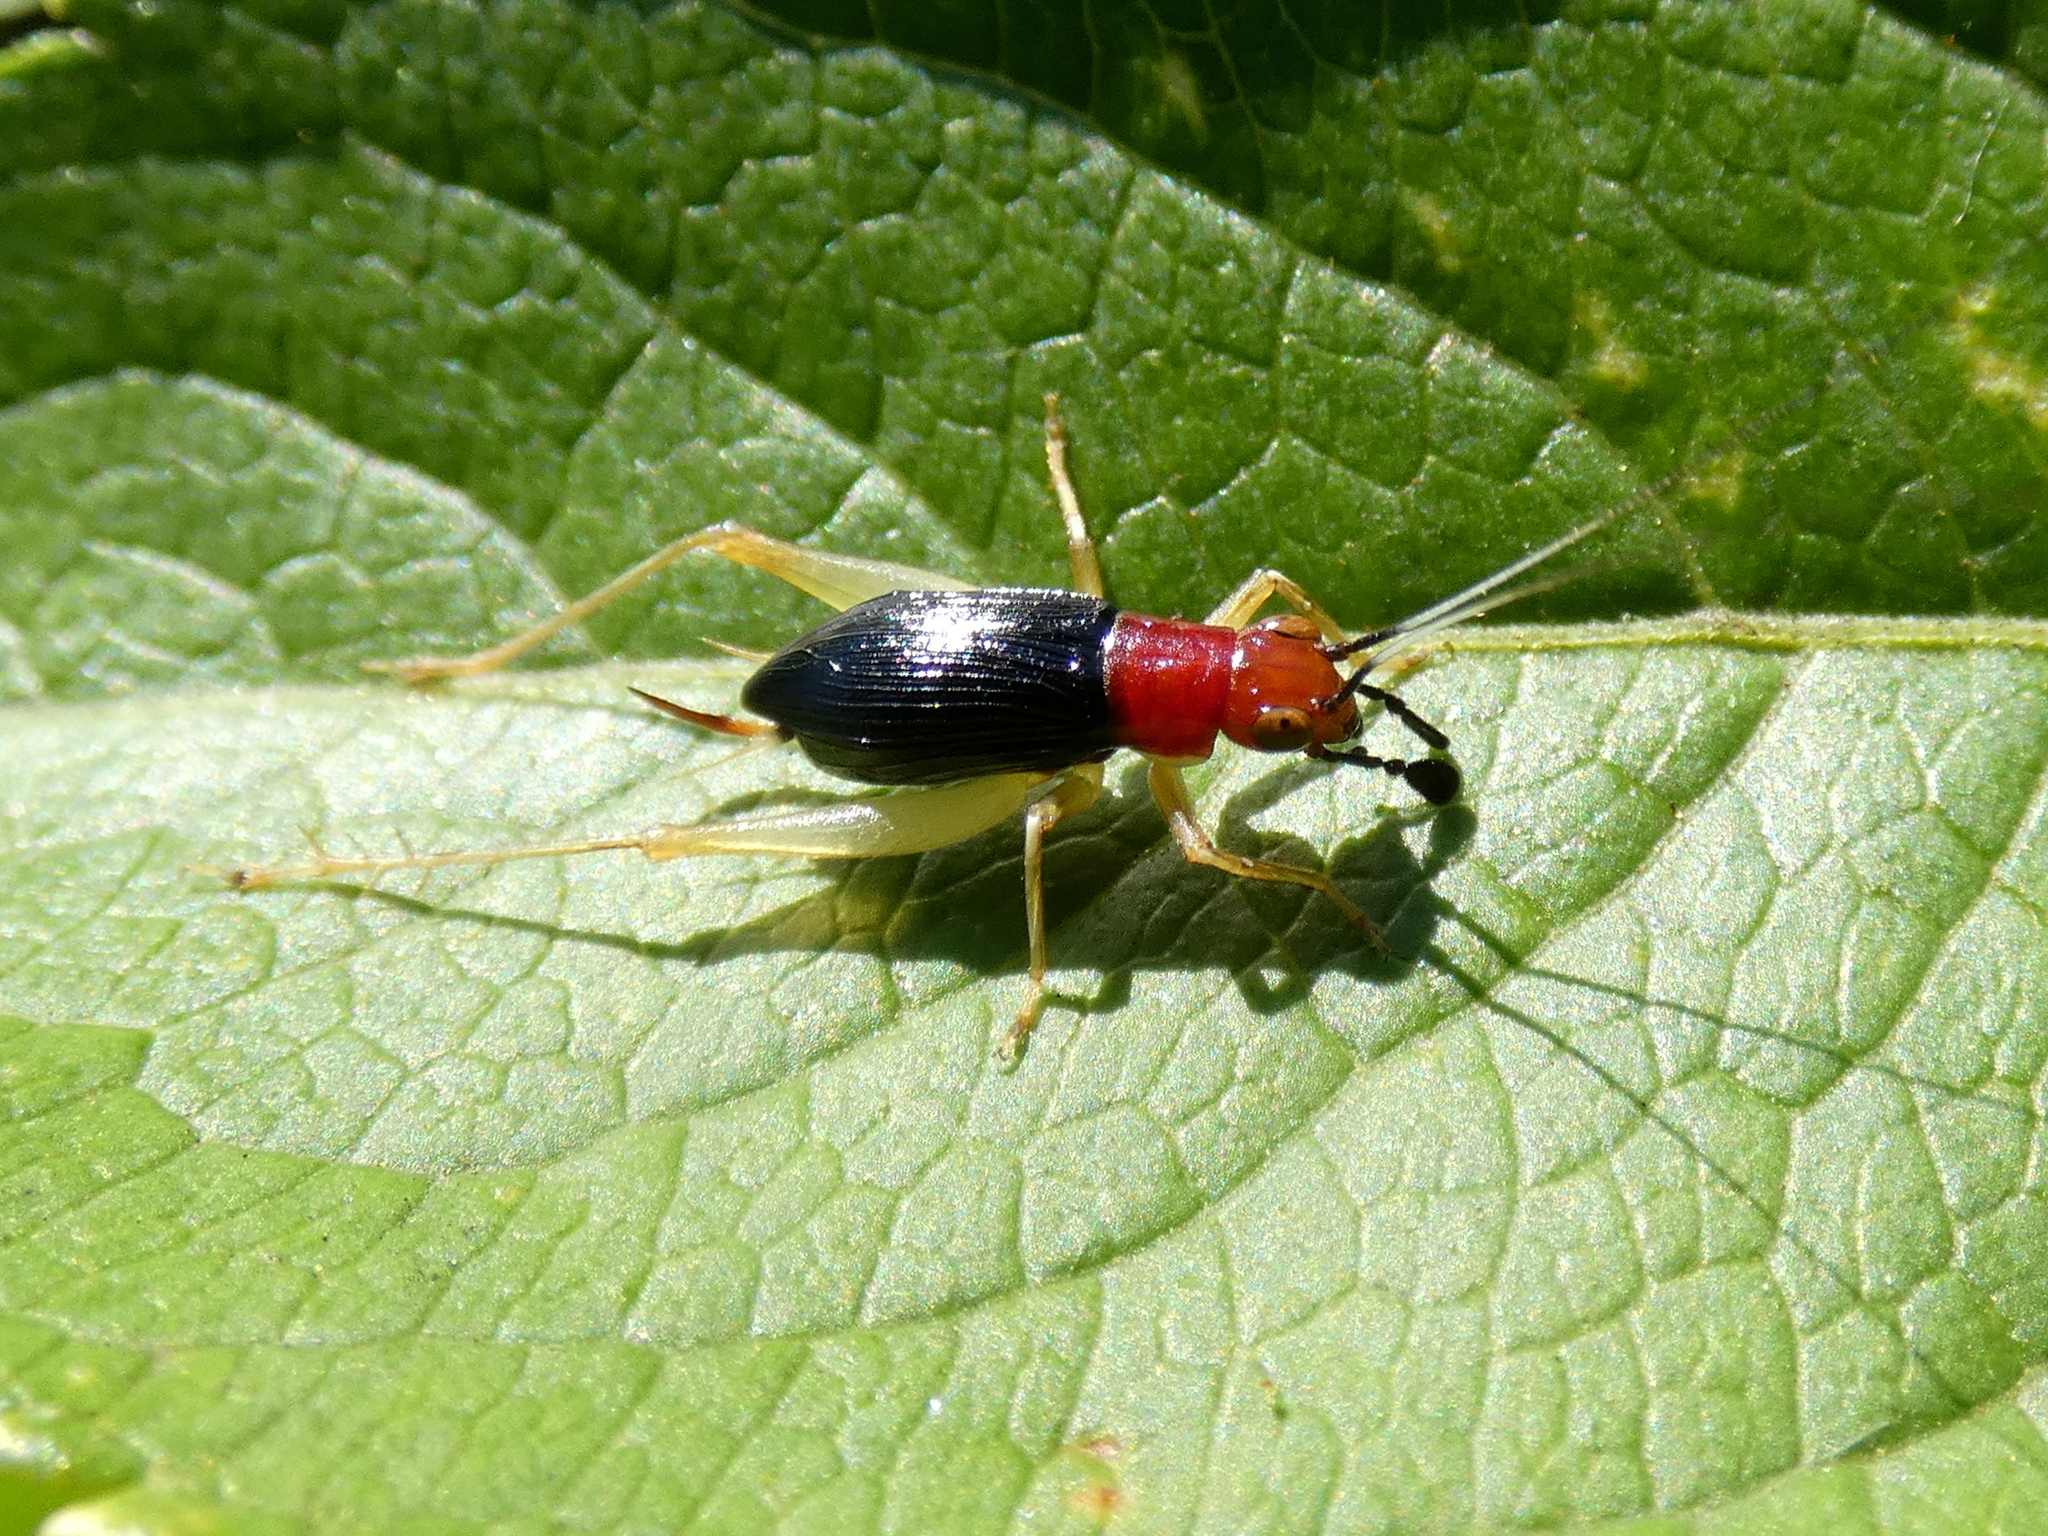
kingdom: Animalia
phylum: Arthropoda
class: Insecta
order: Orthoptera
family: Trigonidiidae
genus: Phyllopalpus
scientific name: Phyllopalpus pulchellus
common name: Handsome trig
